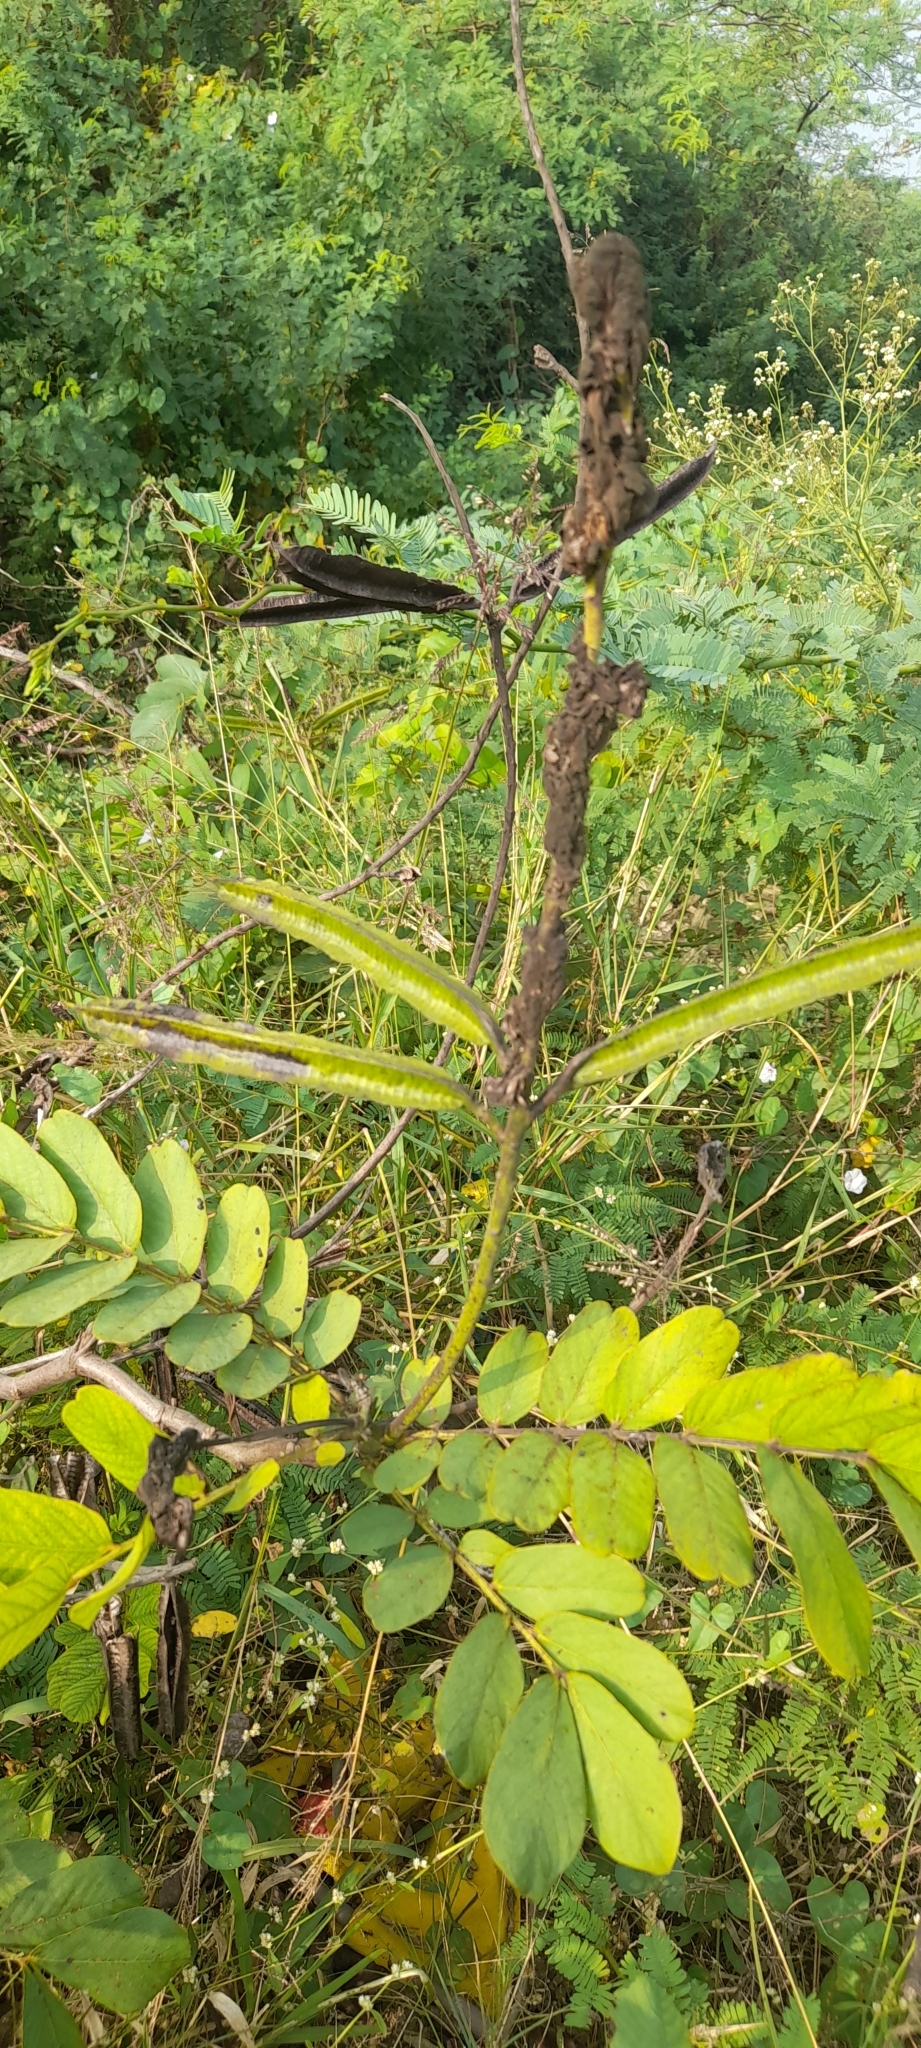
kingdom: Plantae
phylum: Tracheophyta
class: Magnoliopsida
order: Fabales
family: Fabaceae
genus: Senna
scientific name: Senna alata
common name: Emperor's candlesticks
